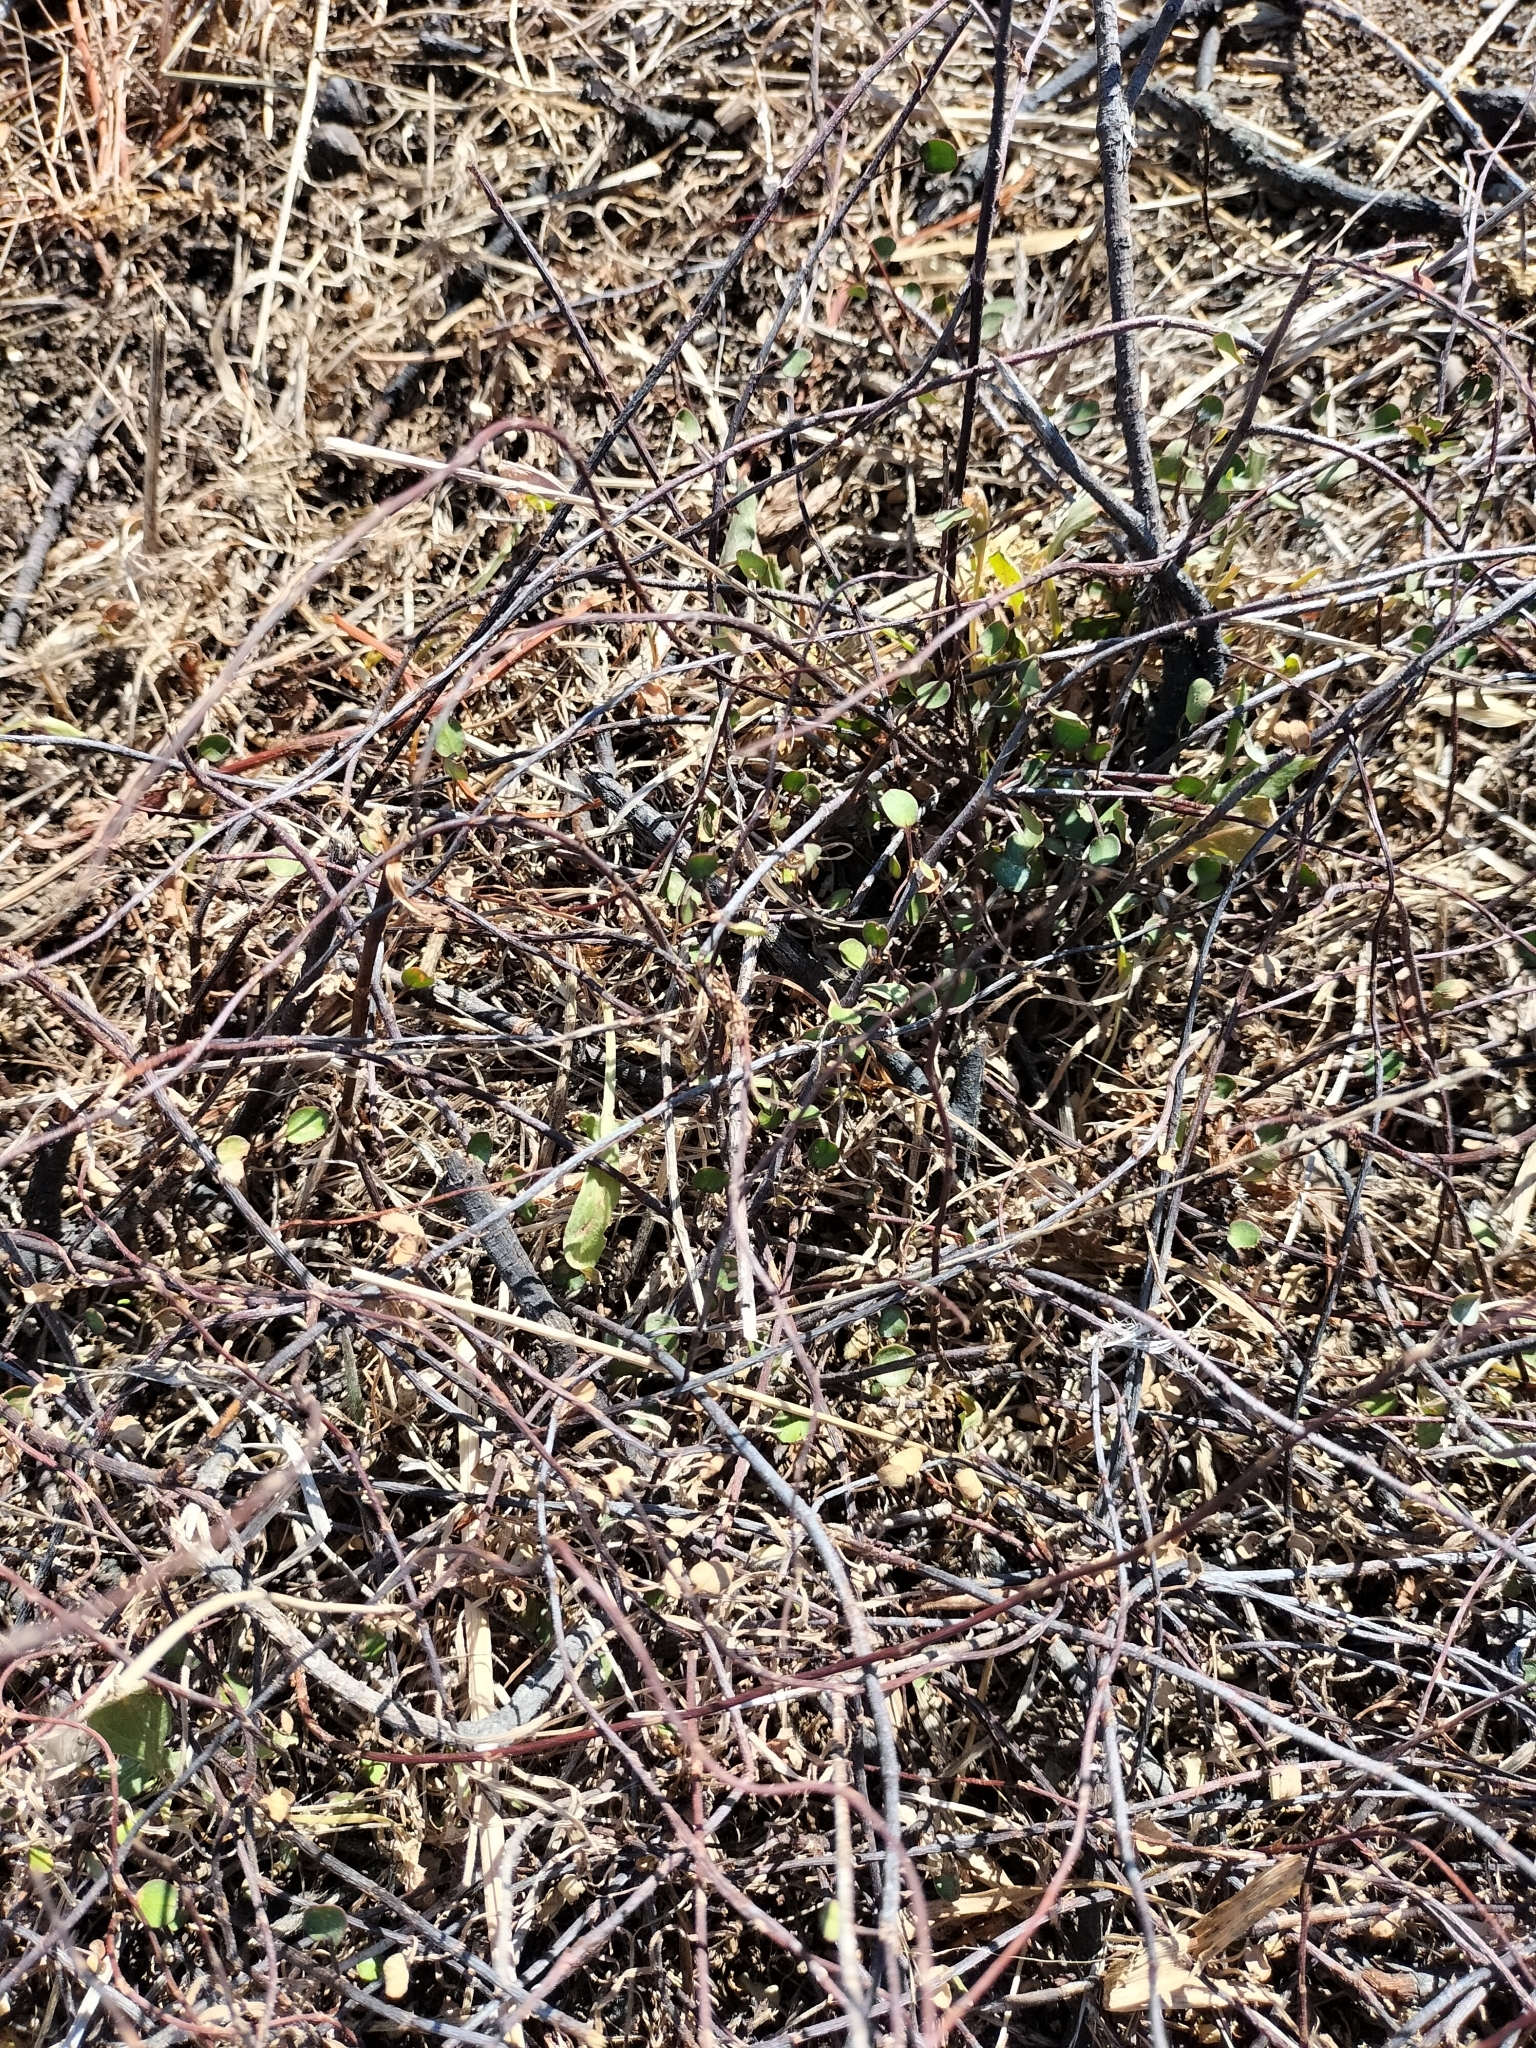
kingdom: Plantae
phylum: Tracheophyta
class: Magnoliopsida
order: Caryophyllales
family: Polygonaceae
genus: Muehlenbeckia
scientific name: Muehlenbeckia complexa
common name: Wireplant
